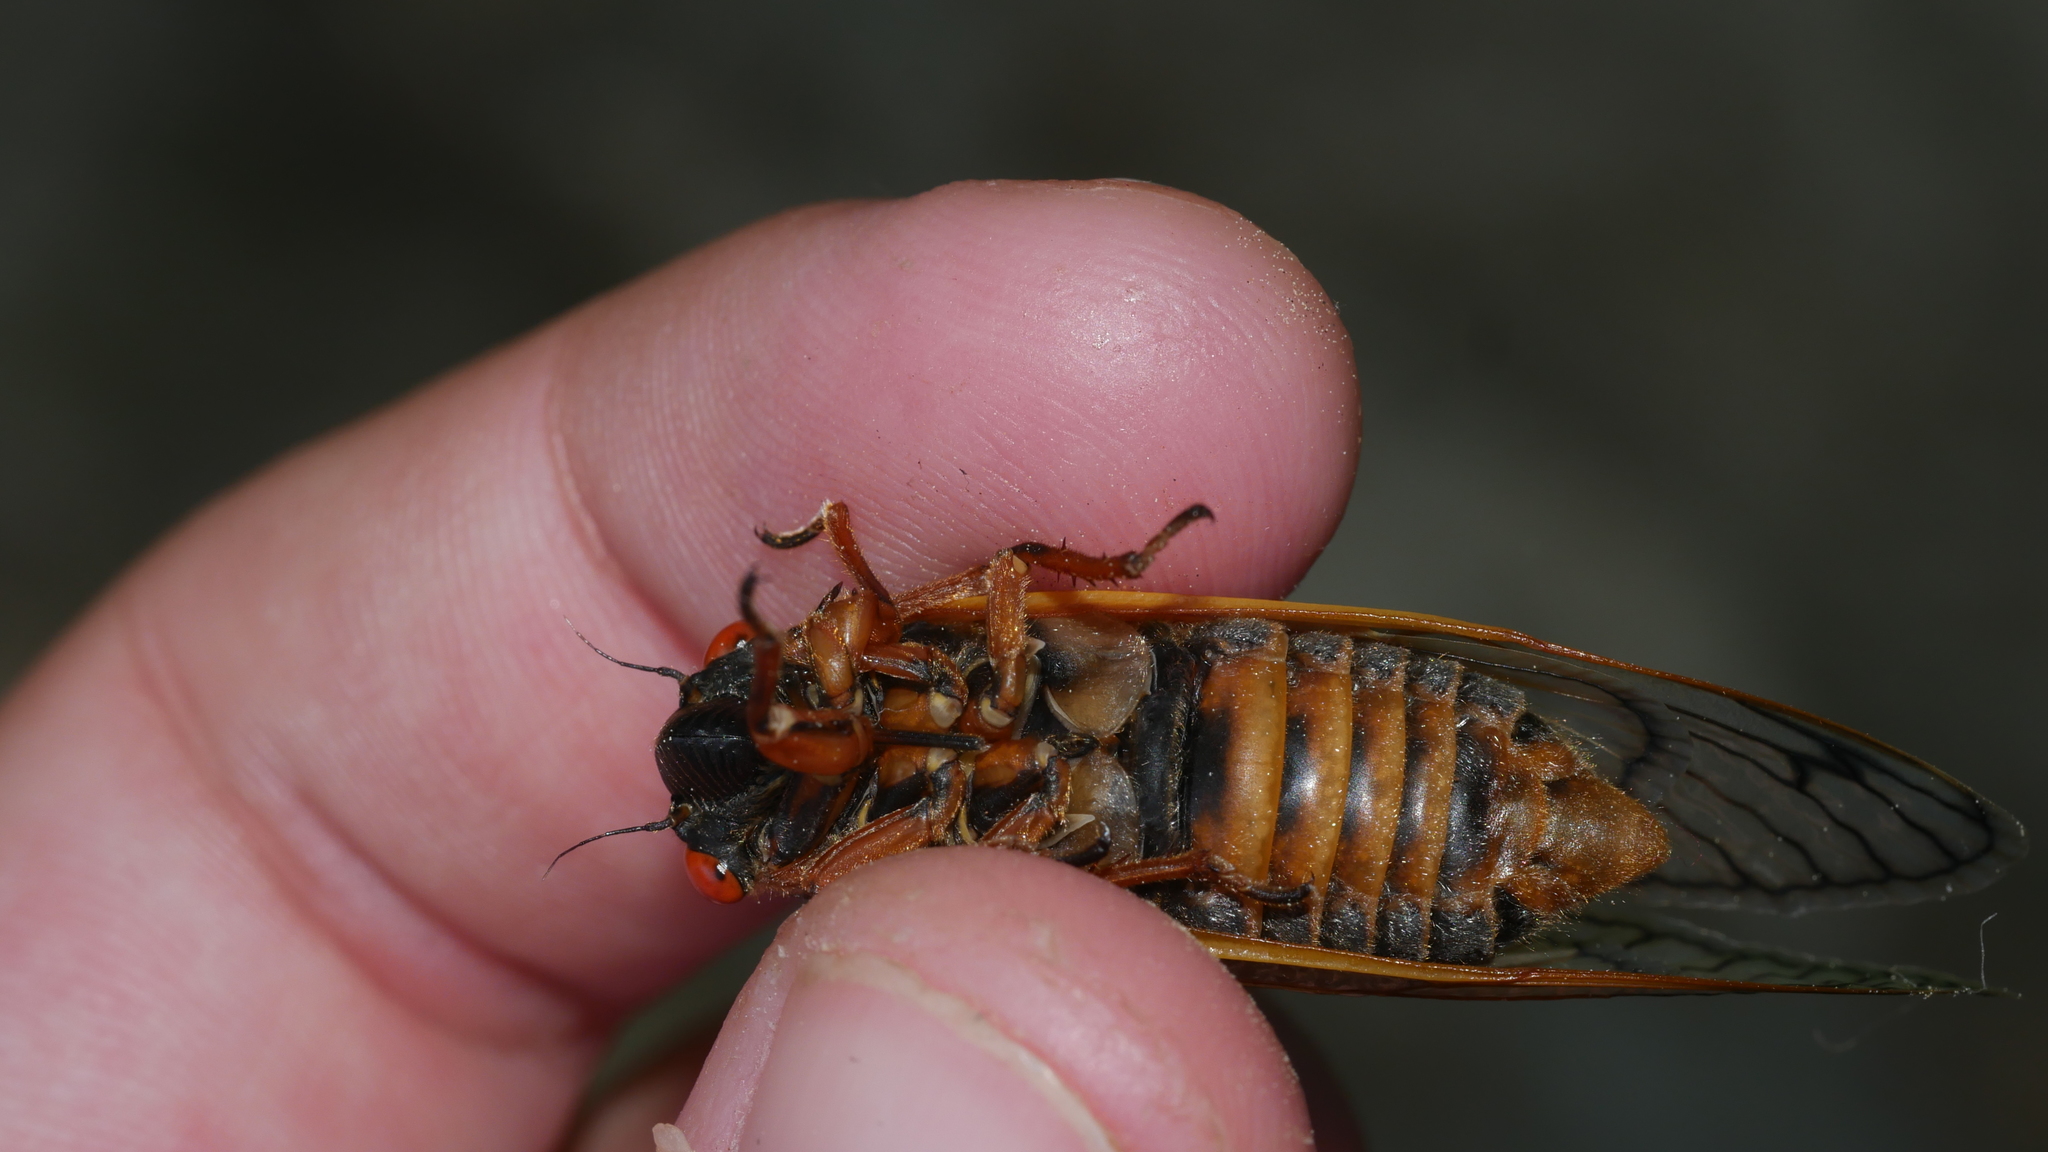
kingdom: Animalia
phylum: Arthropoda
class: Insecta
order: Hemiptera
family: Cicadidae
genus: Magicicada
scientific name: Magicicada septendecim
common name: Periodical cicada
